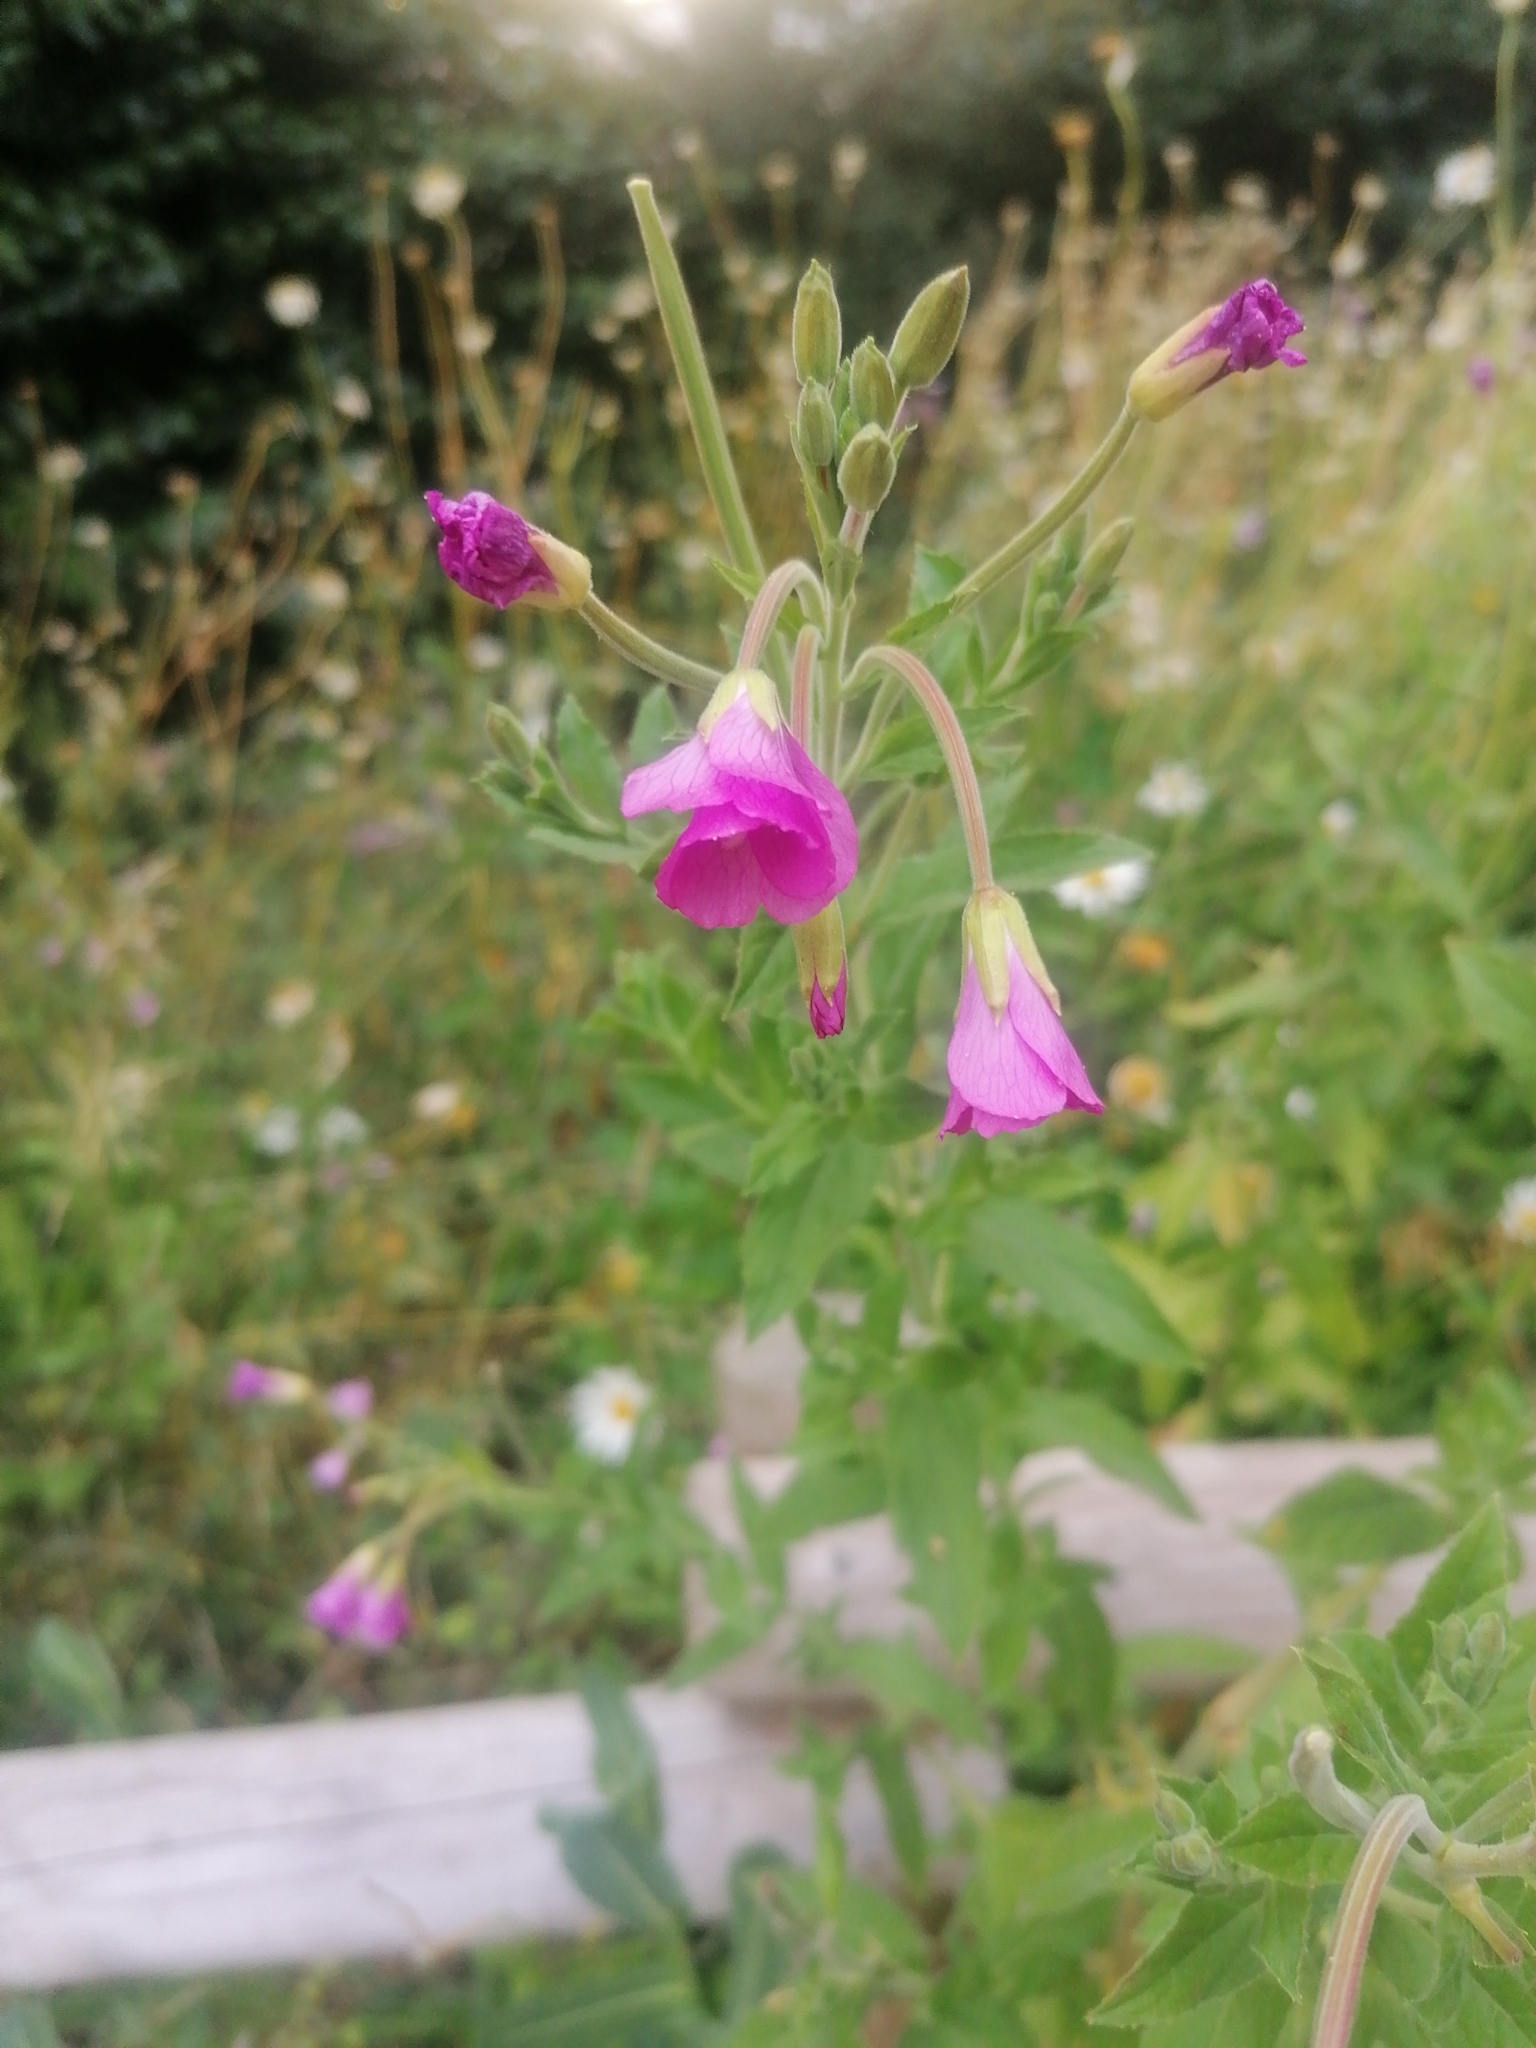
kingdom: Plantae
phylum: Tracheophyta
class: Magnoliopsida
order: Myrtales
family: Onagraceae
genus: Epilobium
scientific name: Epilobium hirsutum
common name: Great willowherb
